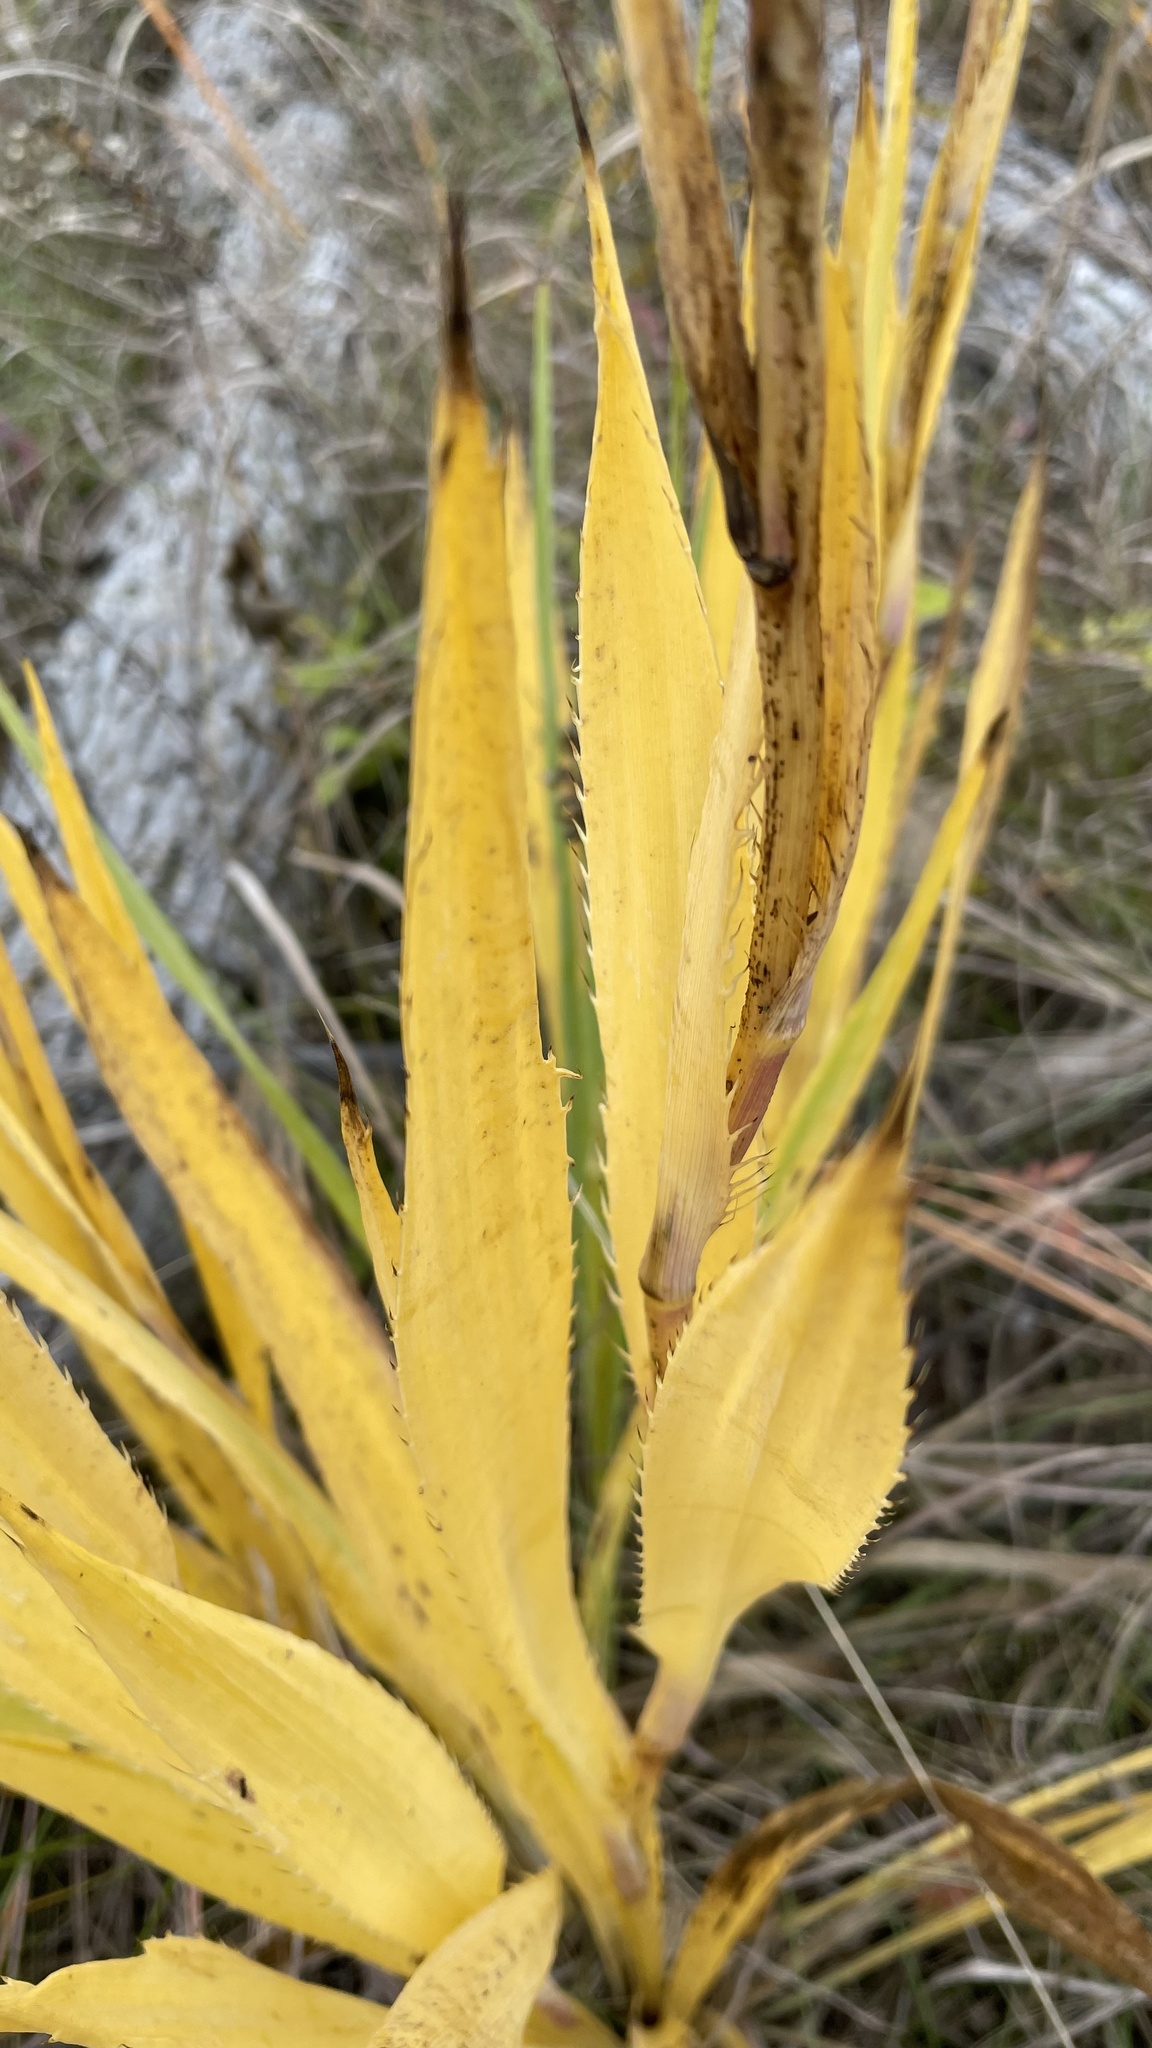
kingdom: Plantae
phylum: Tracheophyta
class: Magnoliopsida
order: Apiales
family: Apiaceae
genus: Eryngium
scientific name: Eryngium yuccifolium
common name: Button eryngo
